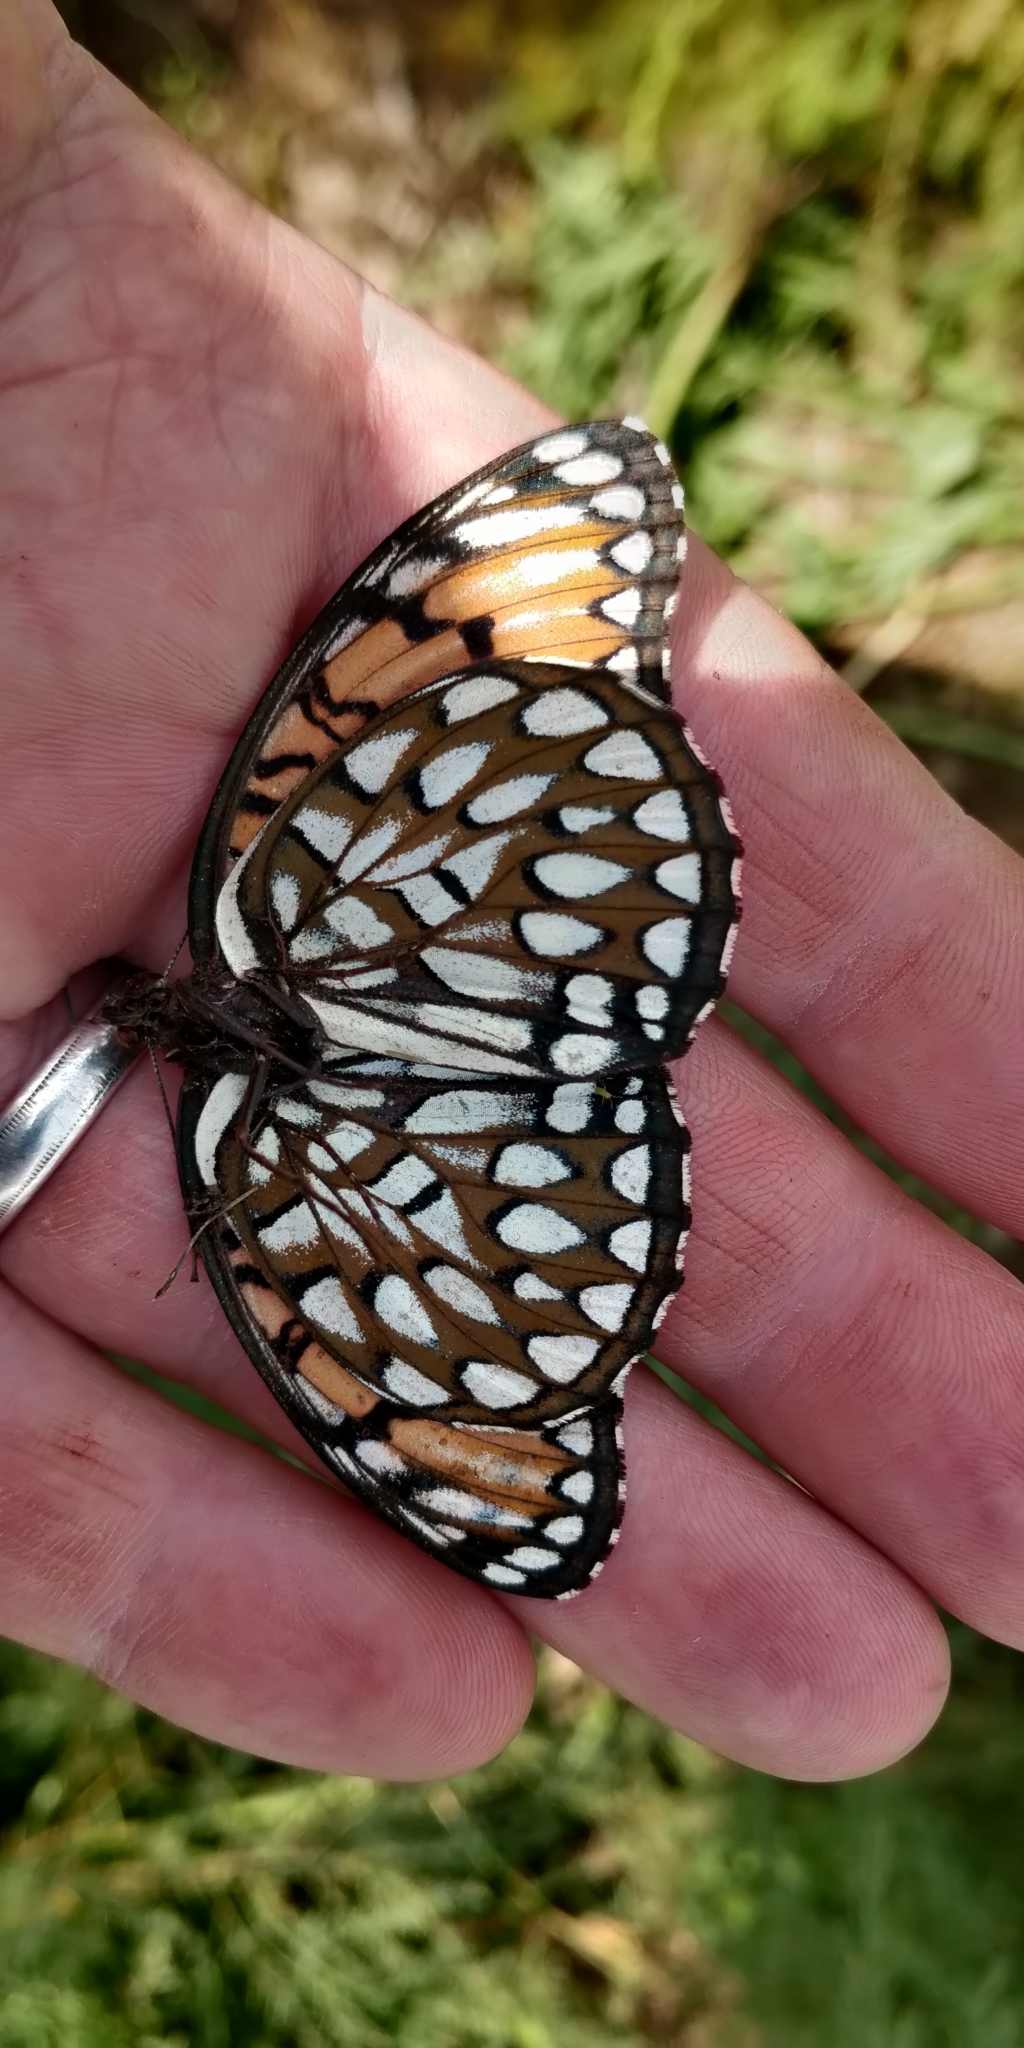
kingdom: Animalia
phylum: Arthropoda
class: Insecta
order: Lepidoptera
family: Nymphalidae
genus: Speyeria
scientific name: Speyeria idalia
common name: Regal fritillary
